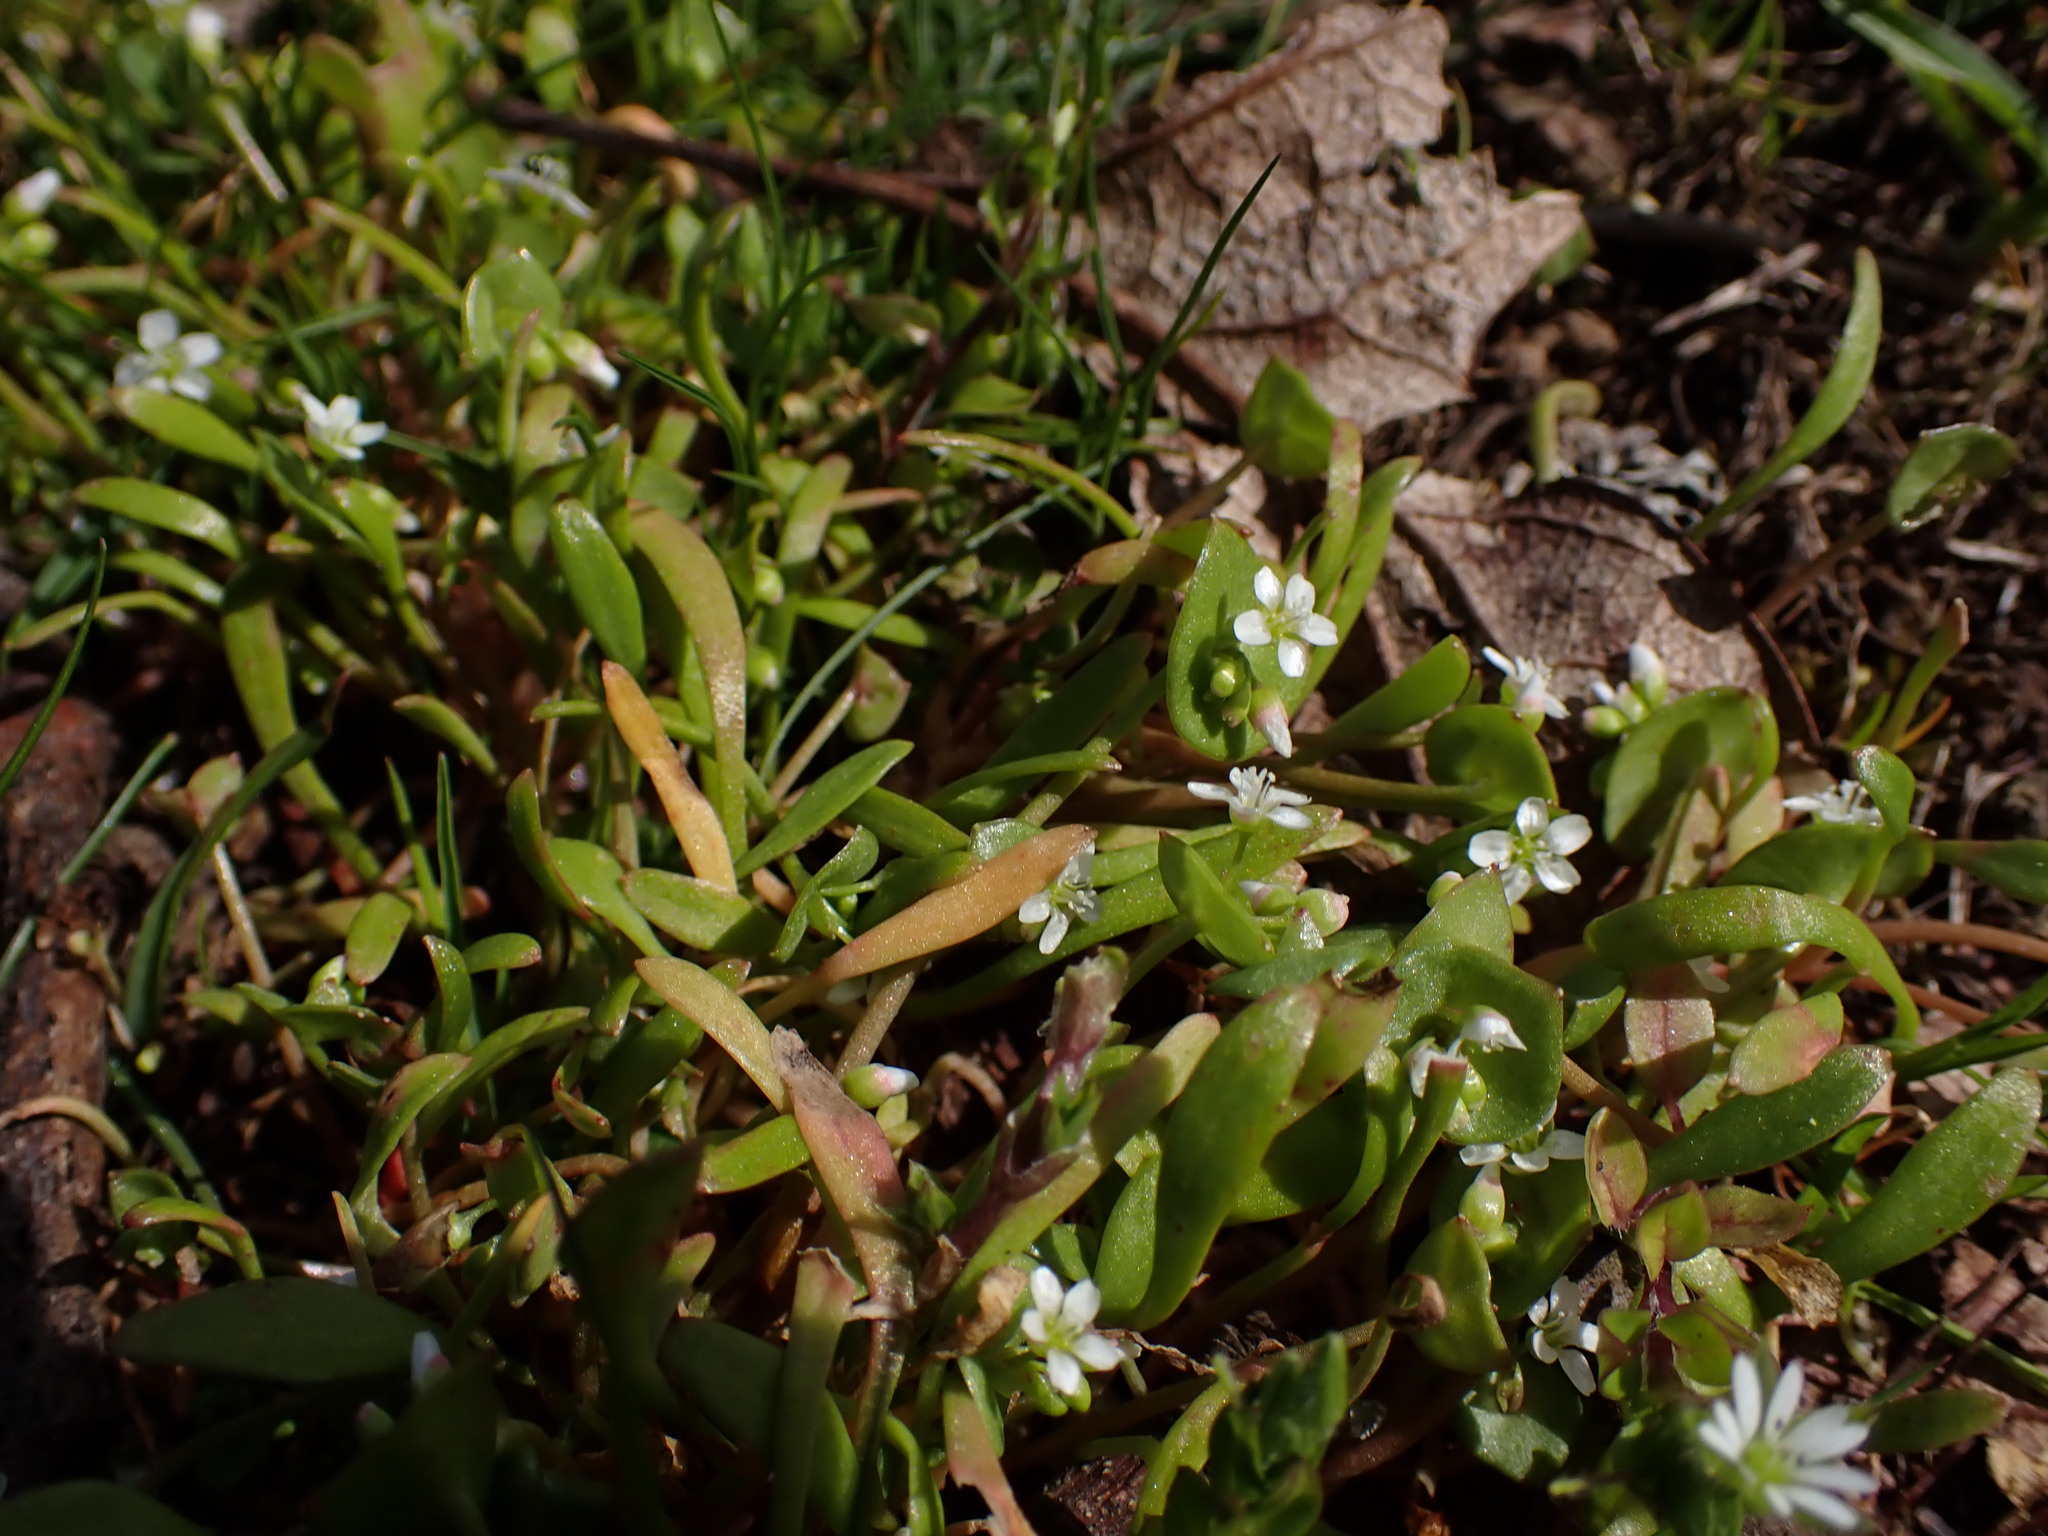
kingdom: Plantae
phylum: Tracheophyta
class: Magnoliopsida
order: Caryophyllales
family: Montiaceae
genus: Claytonia
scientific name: Claytonia parviflora
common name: Indian-lettuce
